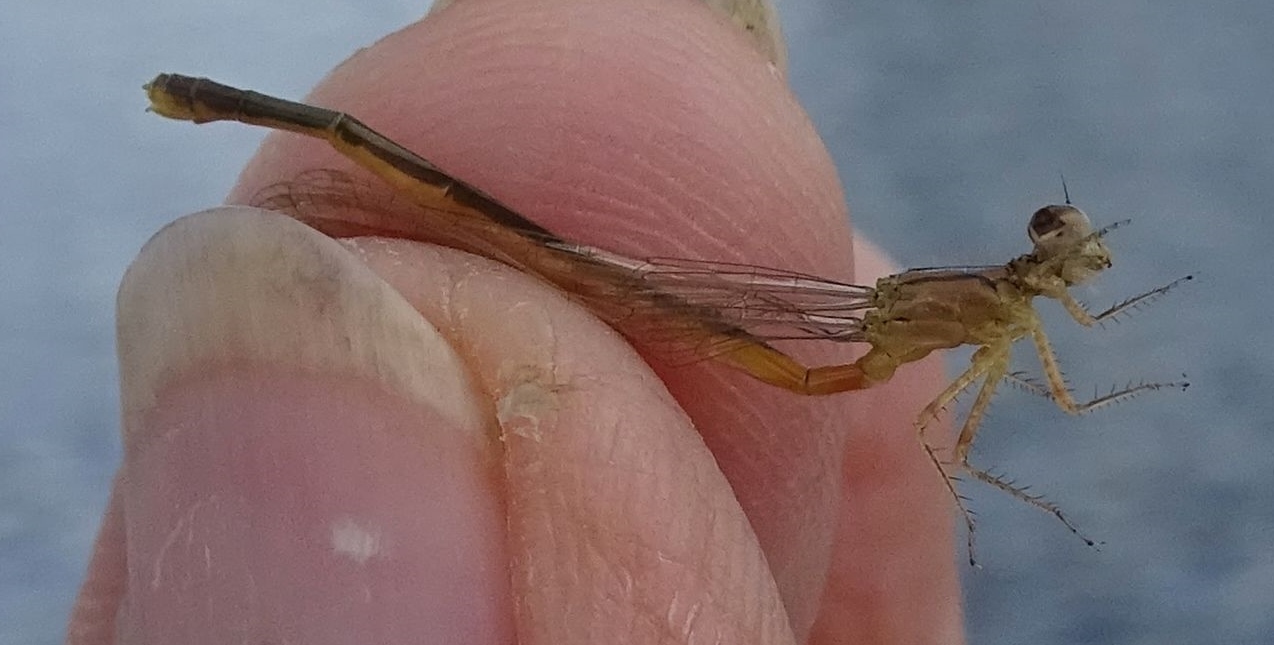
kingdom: Animalia
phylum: Arthropoda
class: Insecta
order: Odonata
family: Coenagrionidae
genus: Ischnura
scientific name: Ischnura verticalis
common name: Eastern forktail
